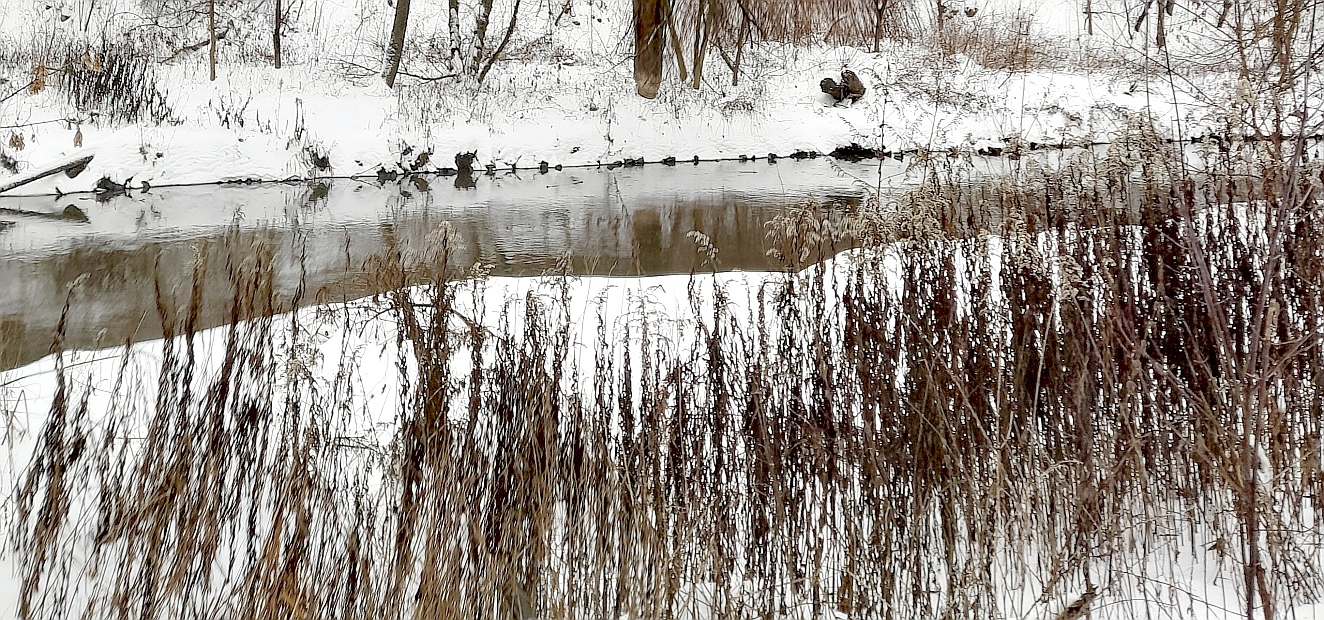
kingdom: Plantae
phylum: Tracheophyta
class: Magnoliopsida
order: Asterales
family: Asteraceae
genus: Solidago
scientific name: Solidago gigantea
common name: Giant goldenrod
